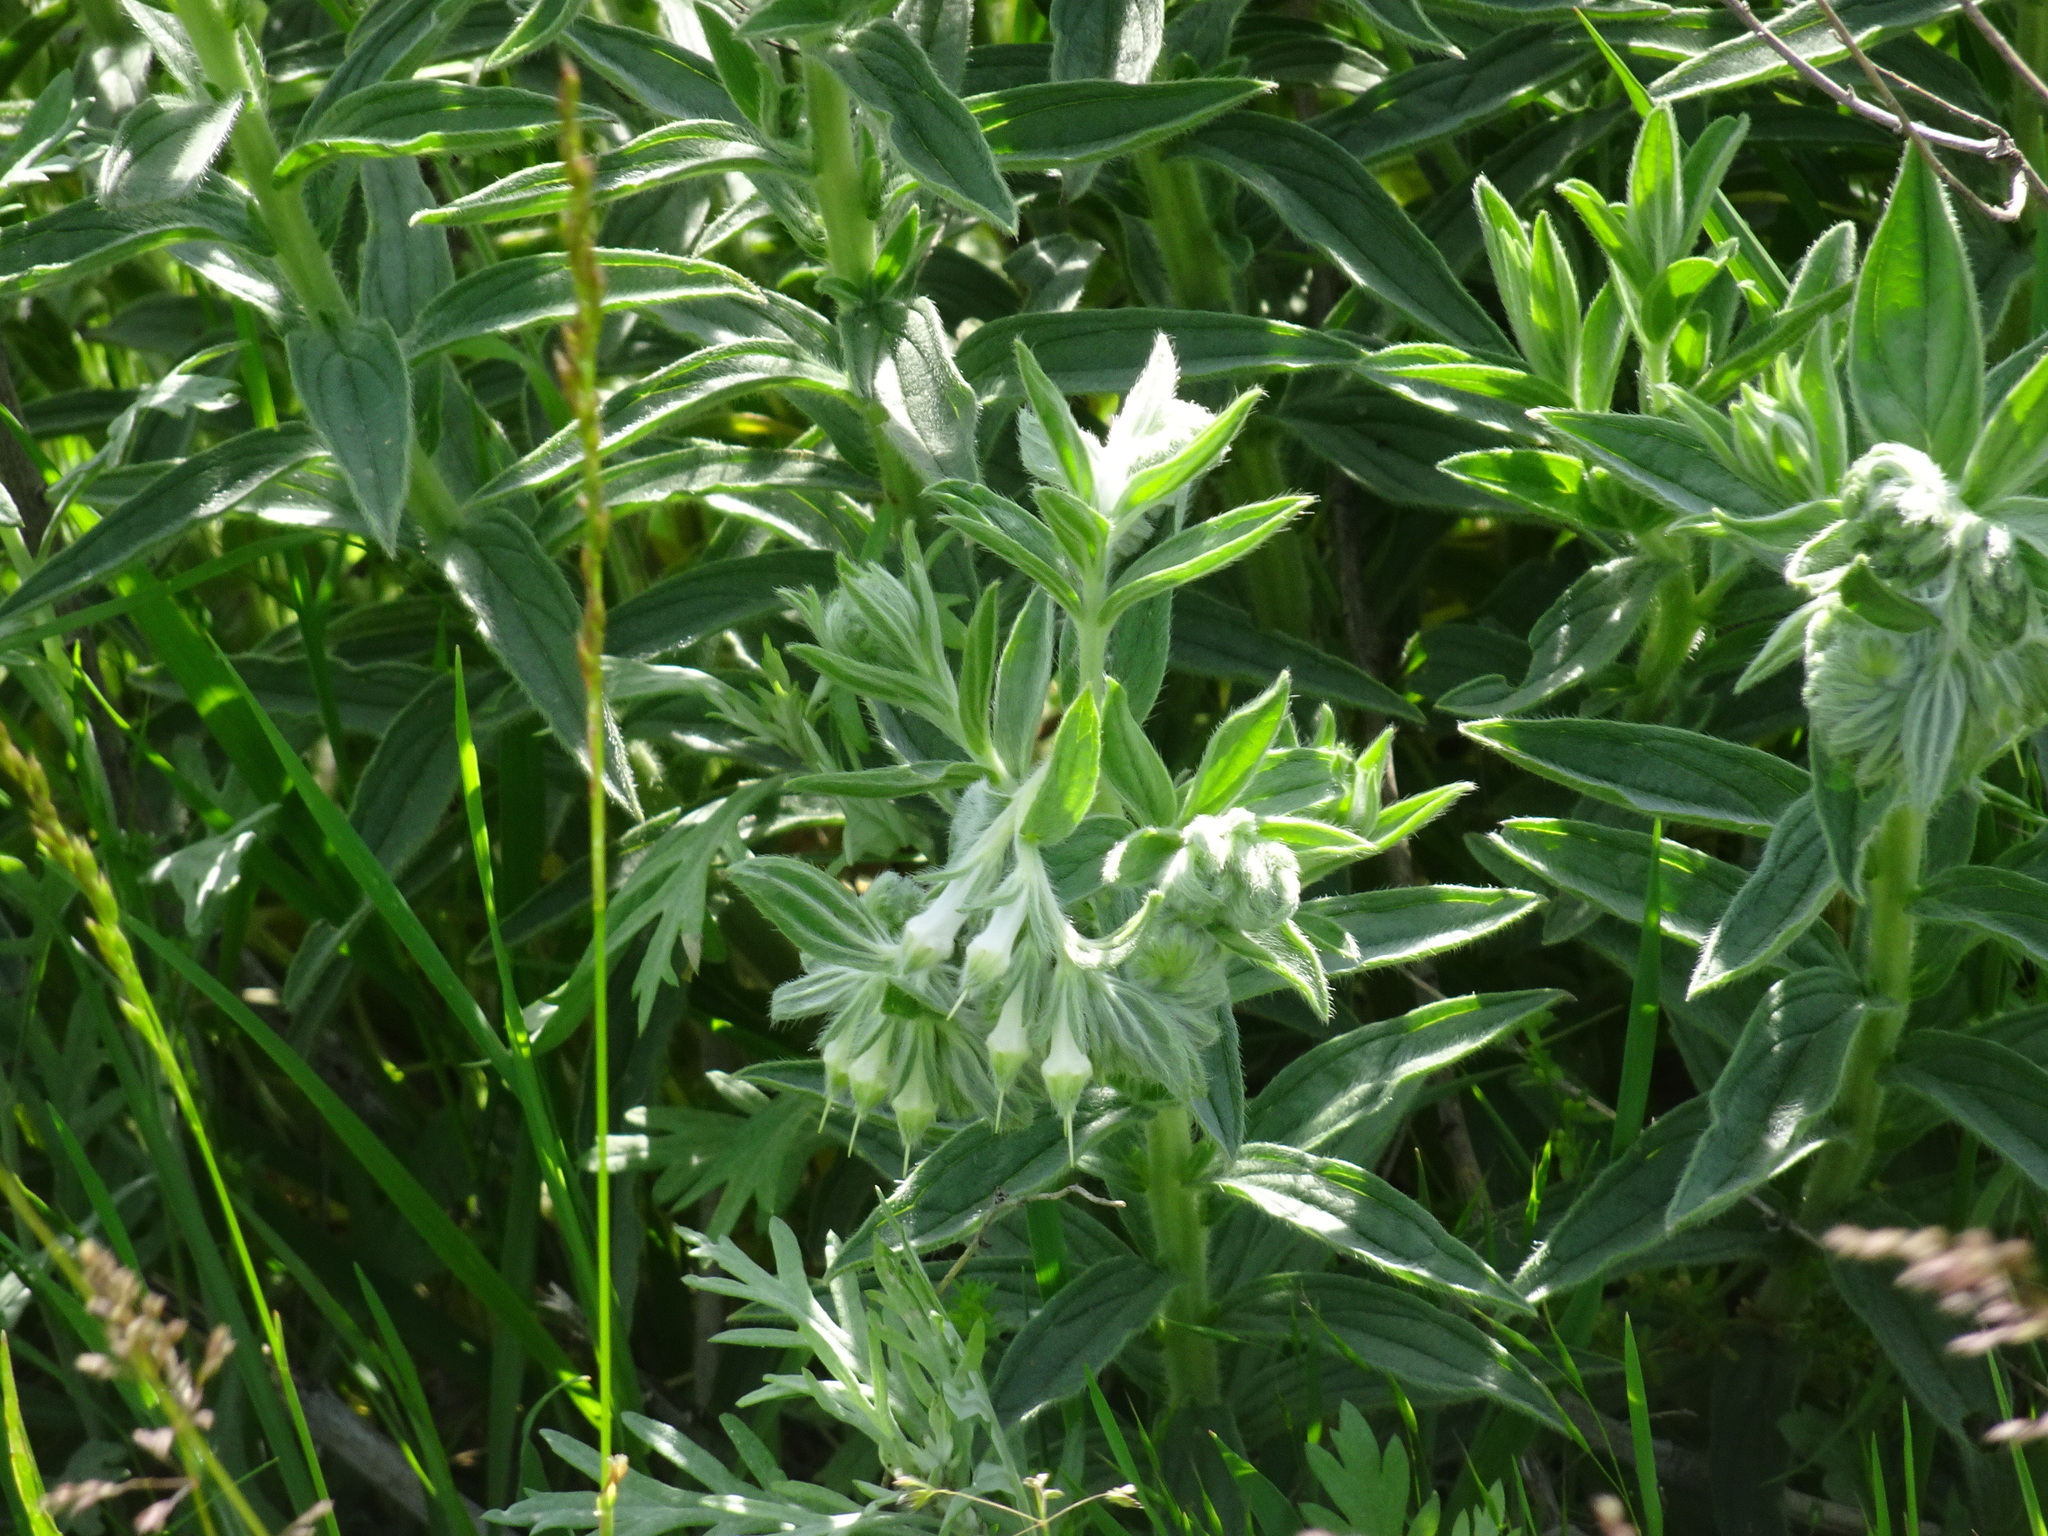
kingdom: Plantae
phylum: Tracheophyta
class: Magnoliopsida
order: Boraginales
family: Boraginaceae
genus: Lithospermum
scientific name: Lithospermum occidentale
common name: Western false gromwell
